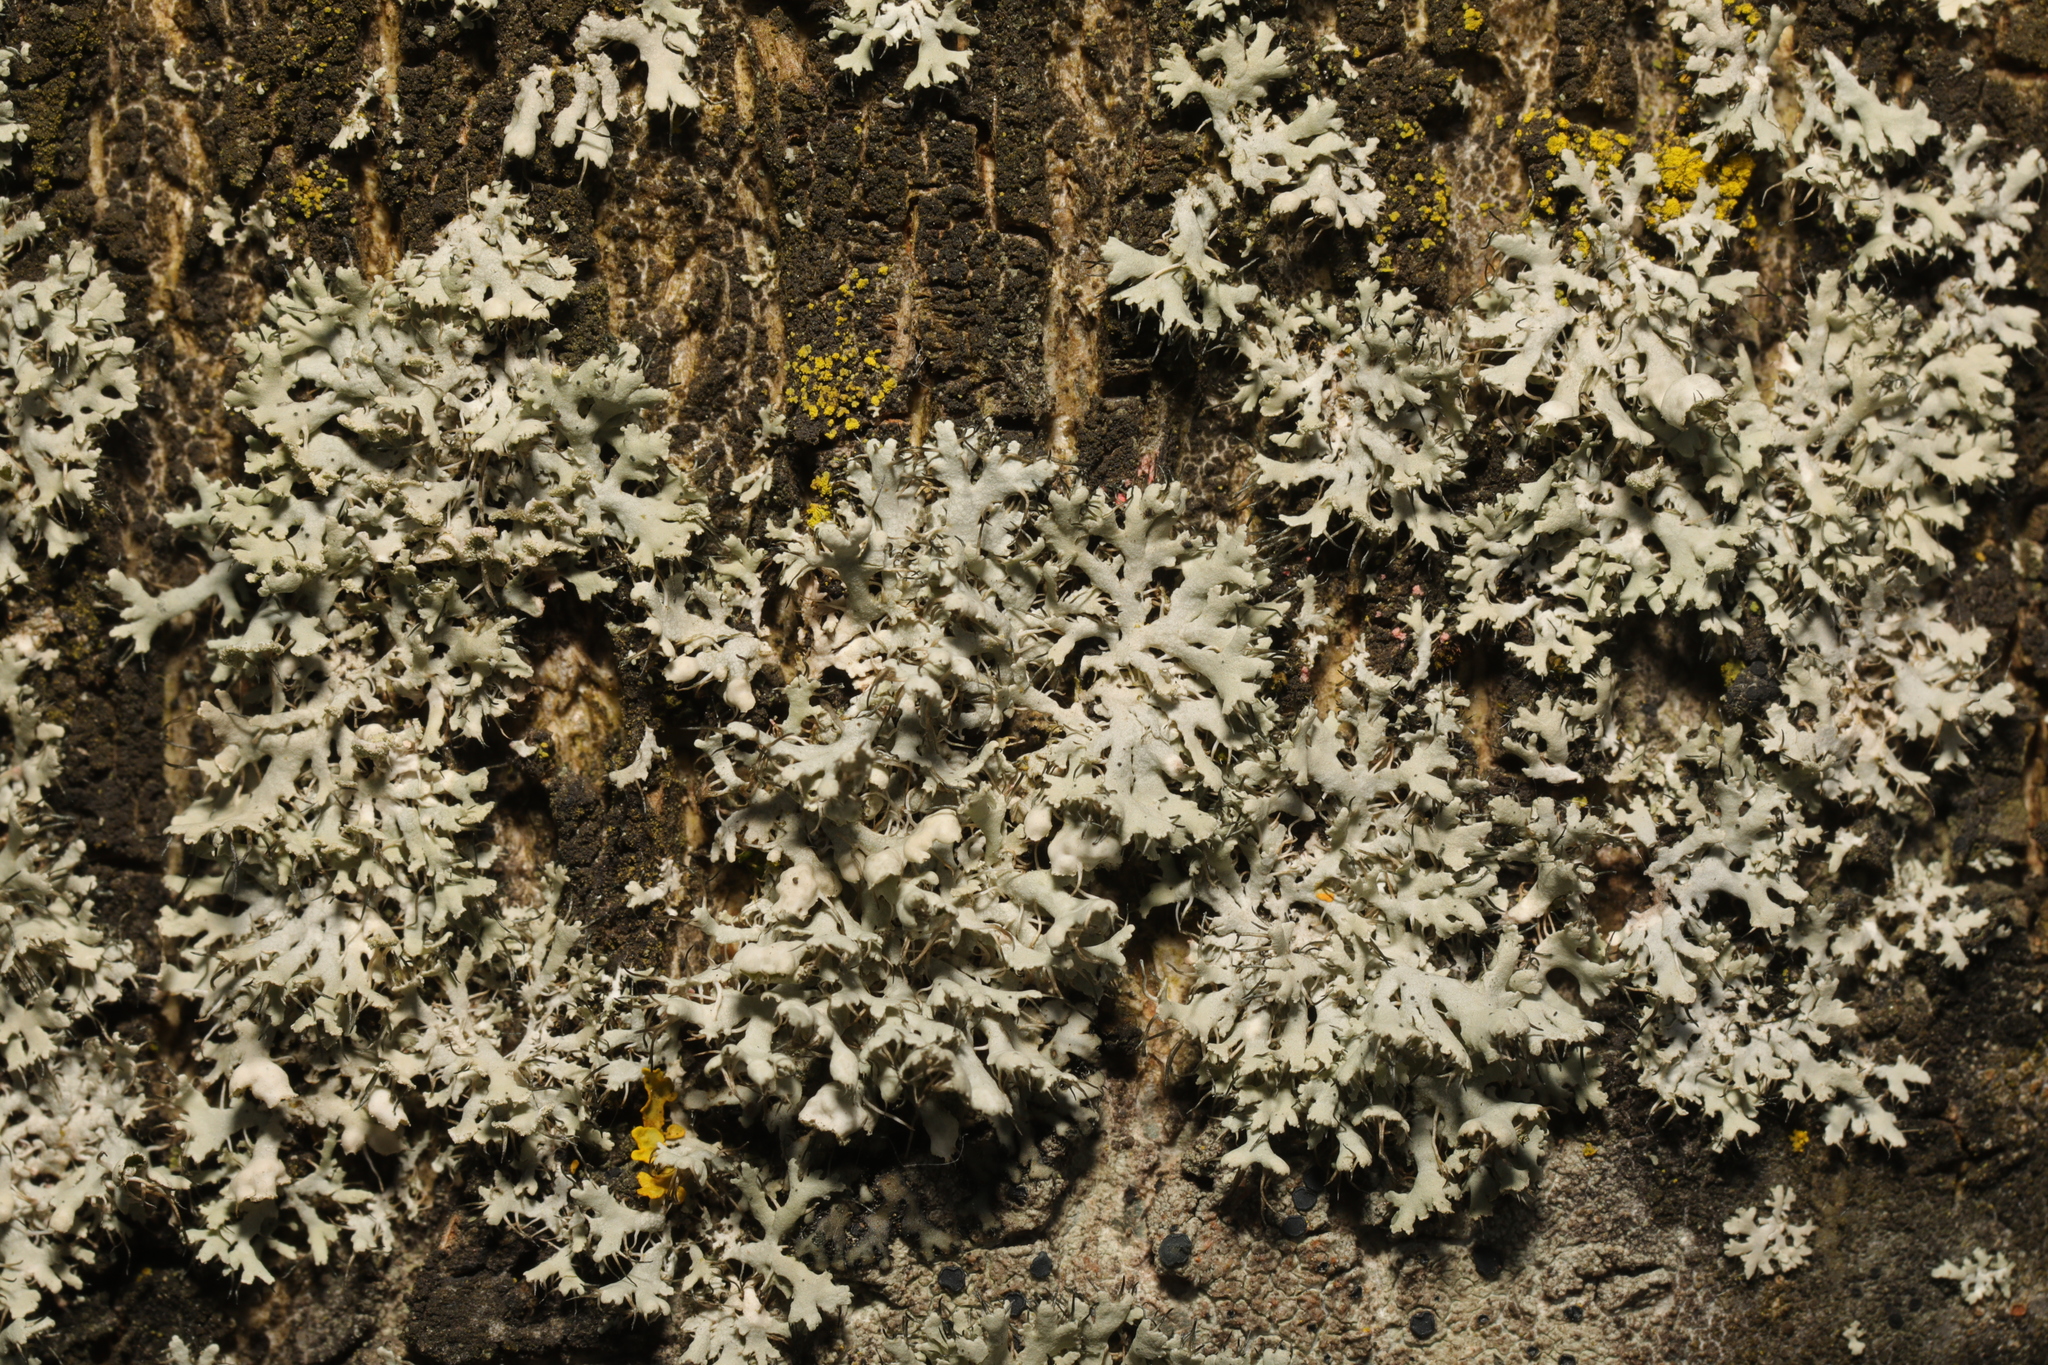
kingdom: Fungi
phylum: Ascomycota
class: Lecanoromycetes
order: Caliciales
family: Physciaceae
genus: Physcia
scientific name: Physcia adscendens
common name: Hooded rosette lichen
